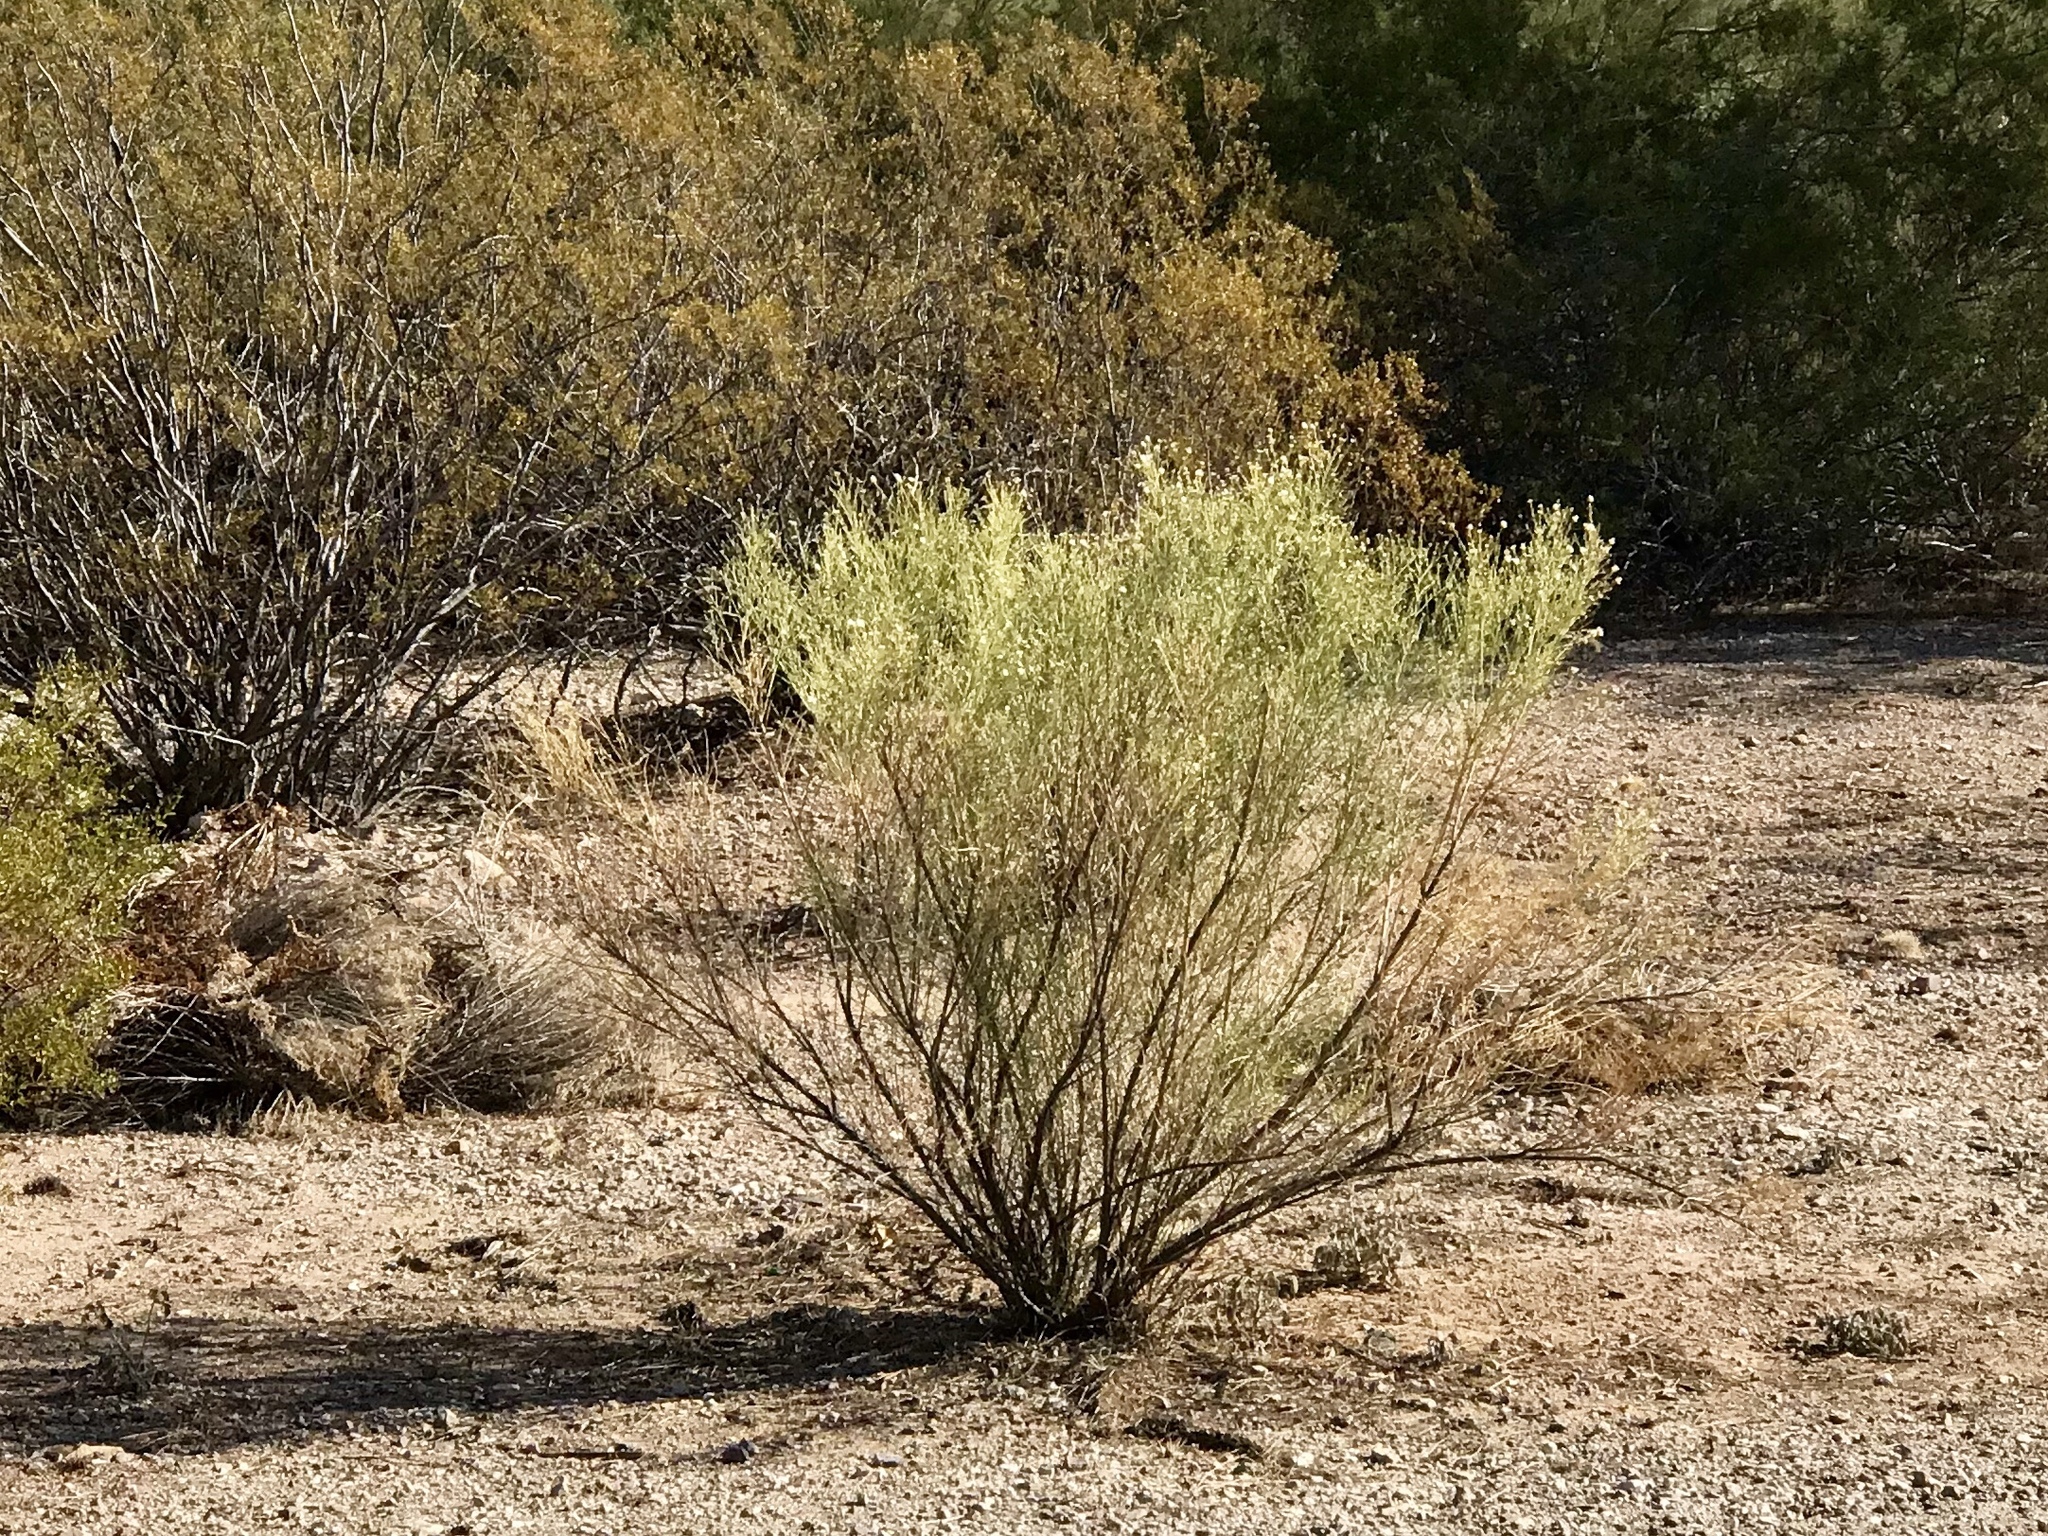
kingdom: Plantae
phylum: Tracheophyta
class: Magnoliopsida
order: Asterales
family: Asteraceae
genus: Baccharis
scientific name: Baccharis sarothroides
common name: Desert-broom
